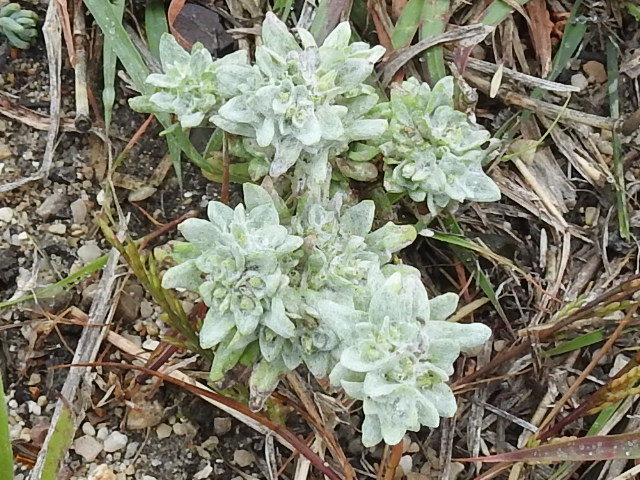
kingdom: Plantae
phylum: Tracheophyta
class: Magnoliopsida
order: Asterales
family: Asteraceae
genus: Diaperia
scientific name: Diaperia prolifera
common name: Big-head rabbit-tobacco
